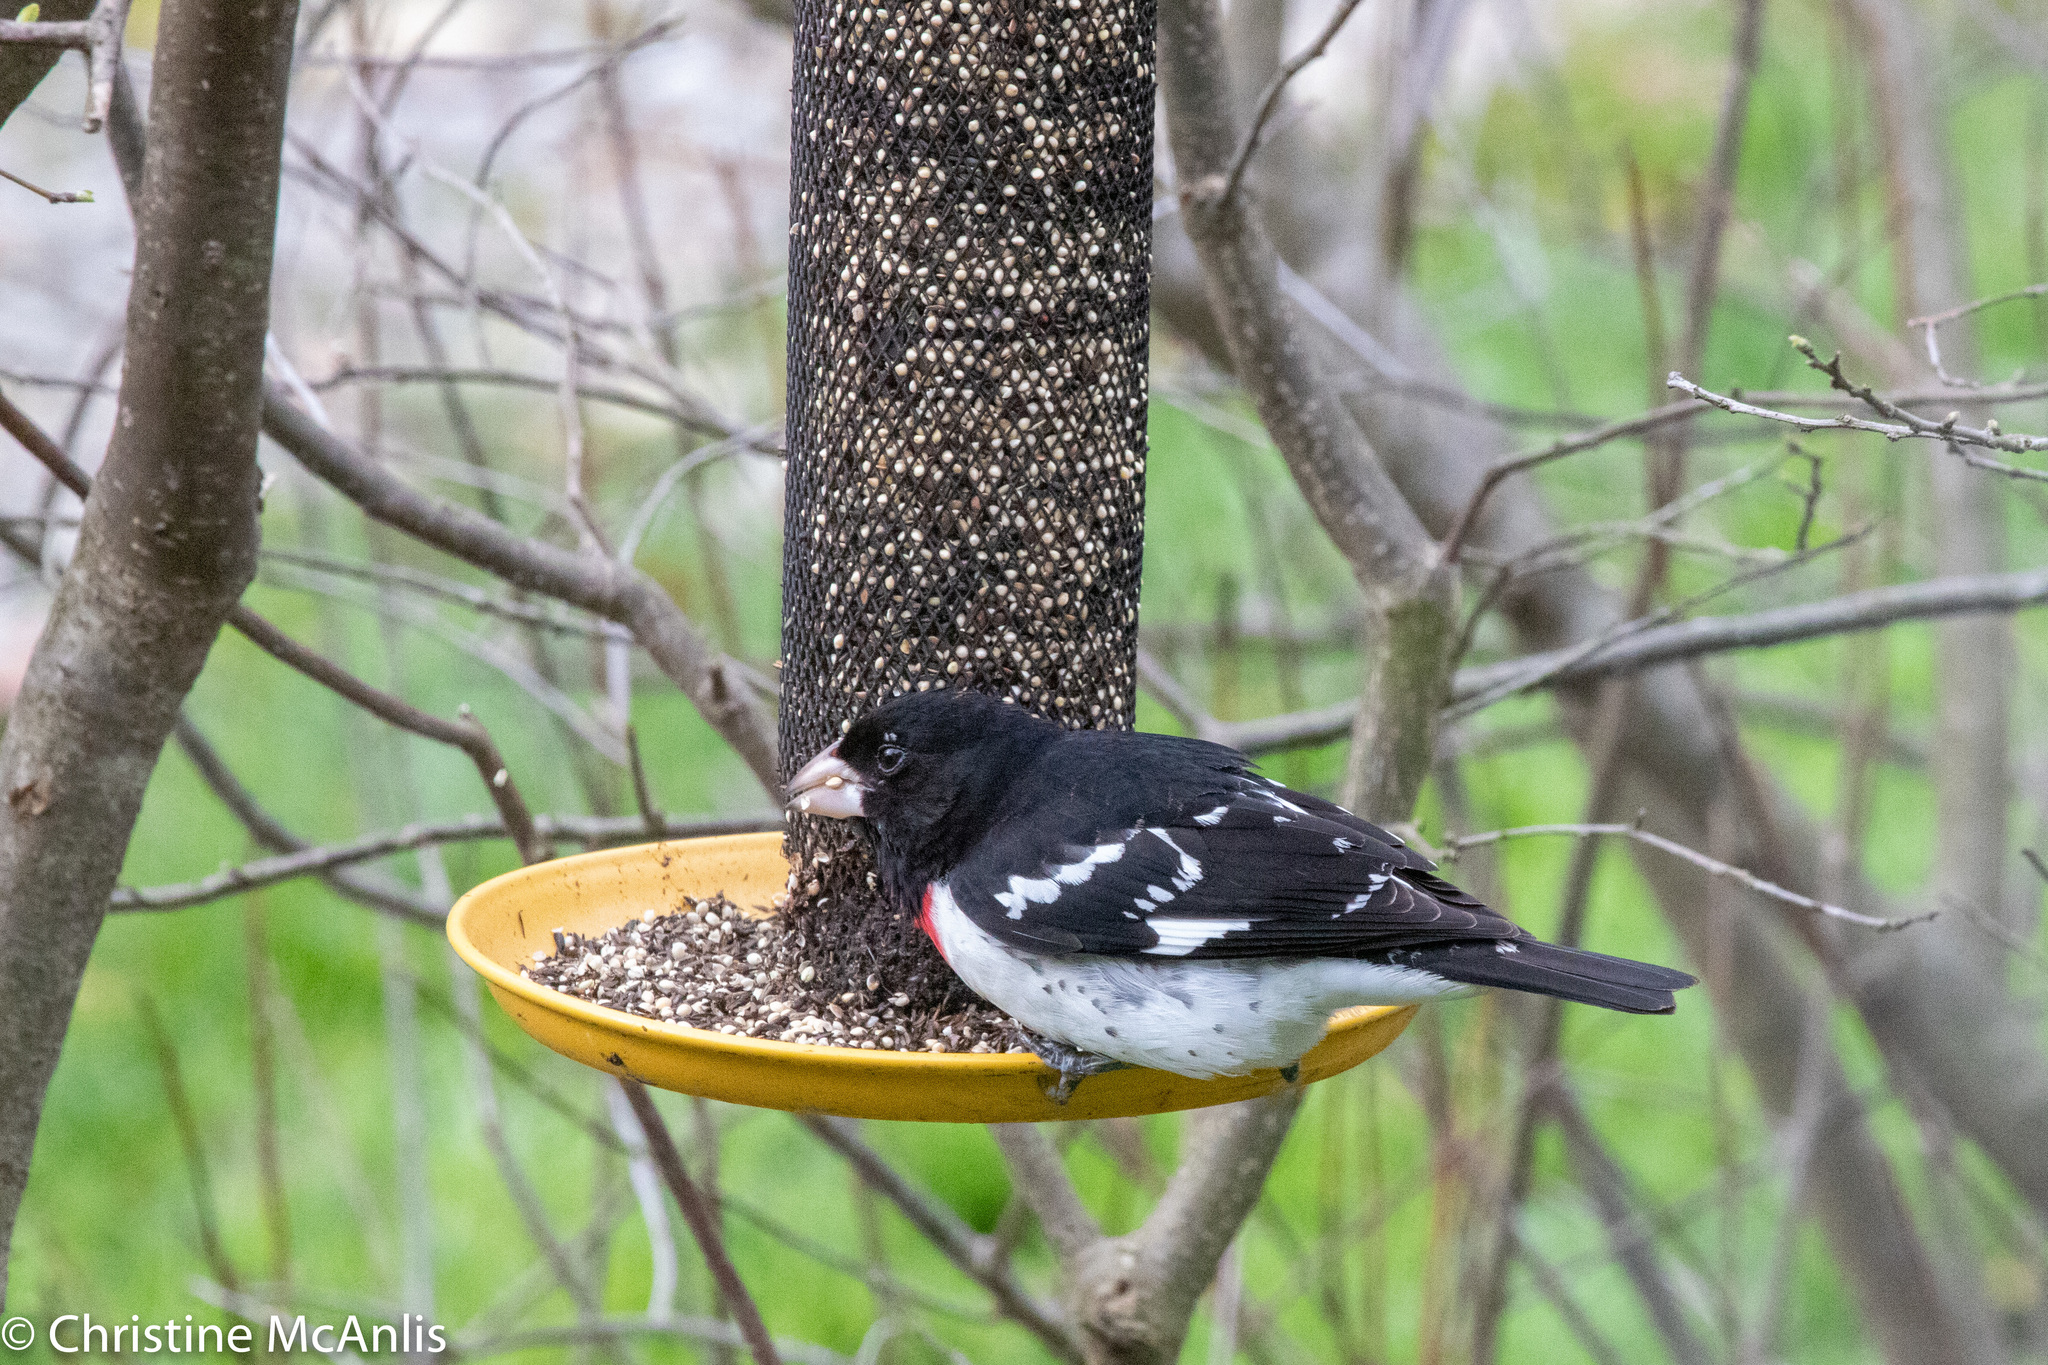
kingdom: Animalia
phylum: Chordata
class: Aves
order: Passeriformes
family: Cardinalidae
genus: Pheucticus
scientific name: Pheucticus ludovicianus
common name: Rose-breasted grosbeak
